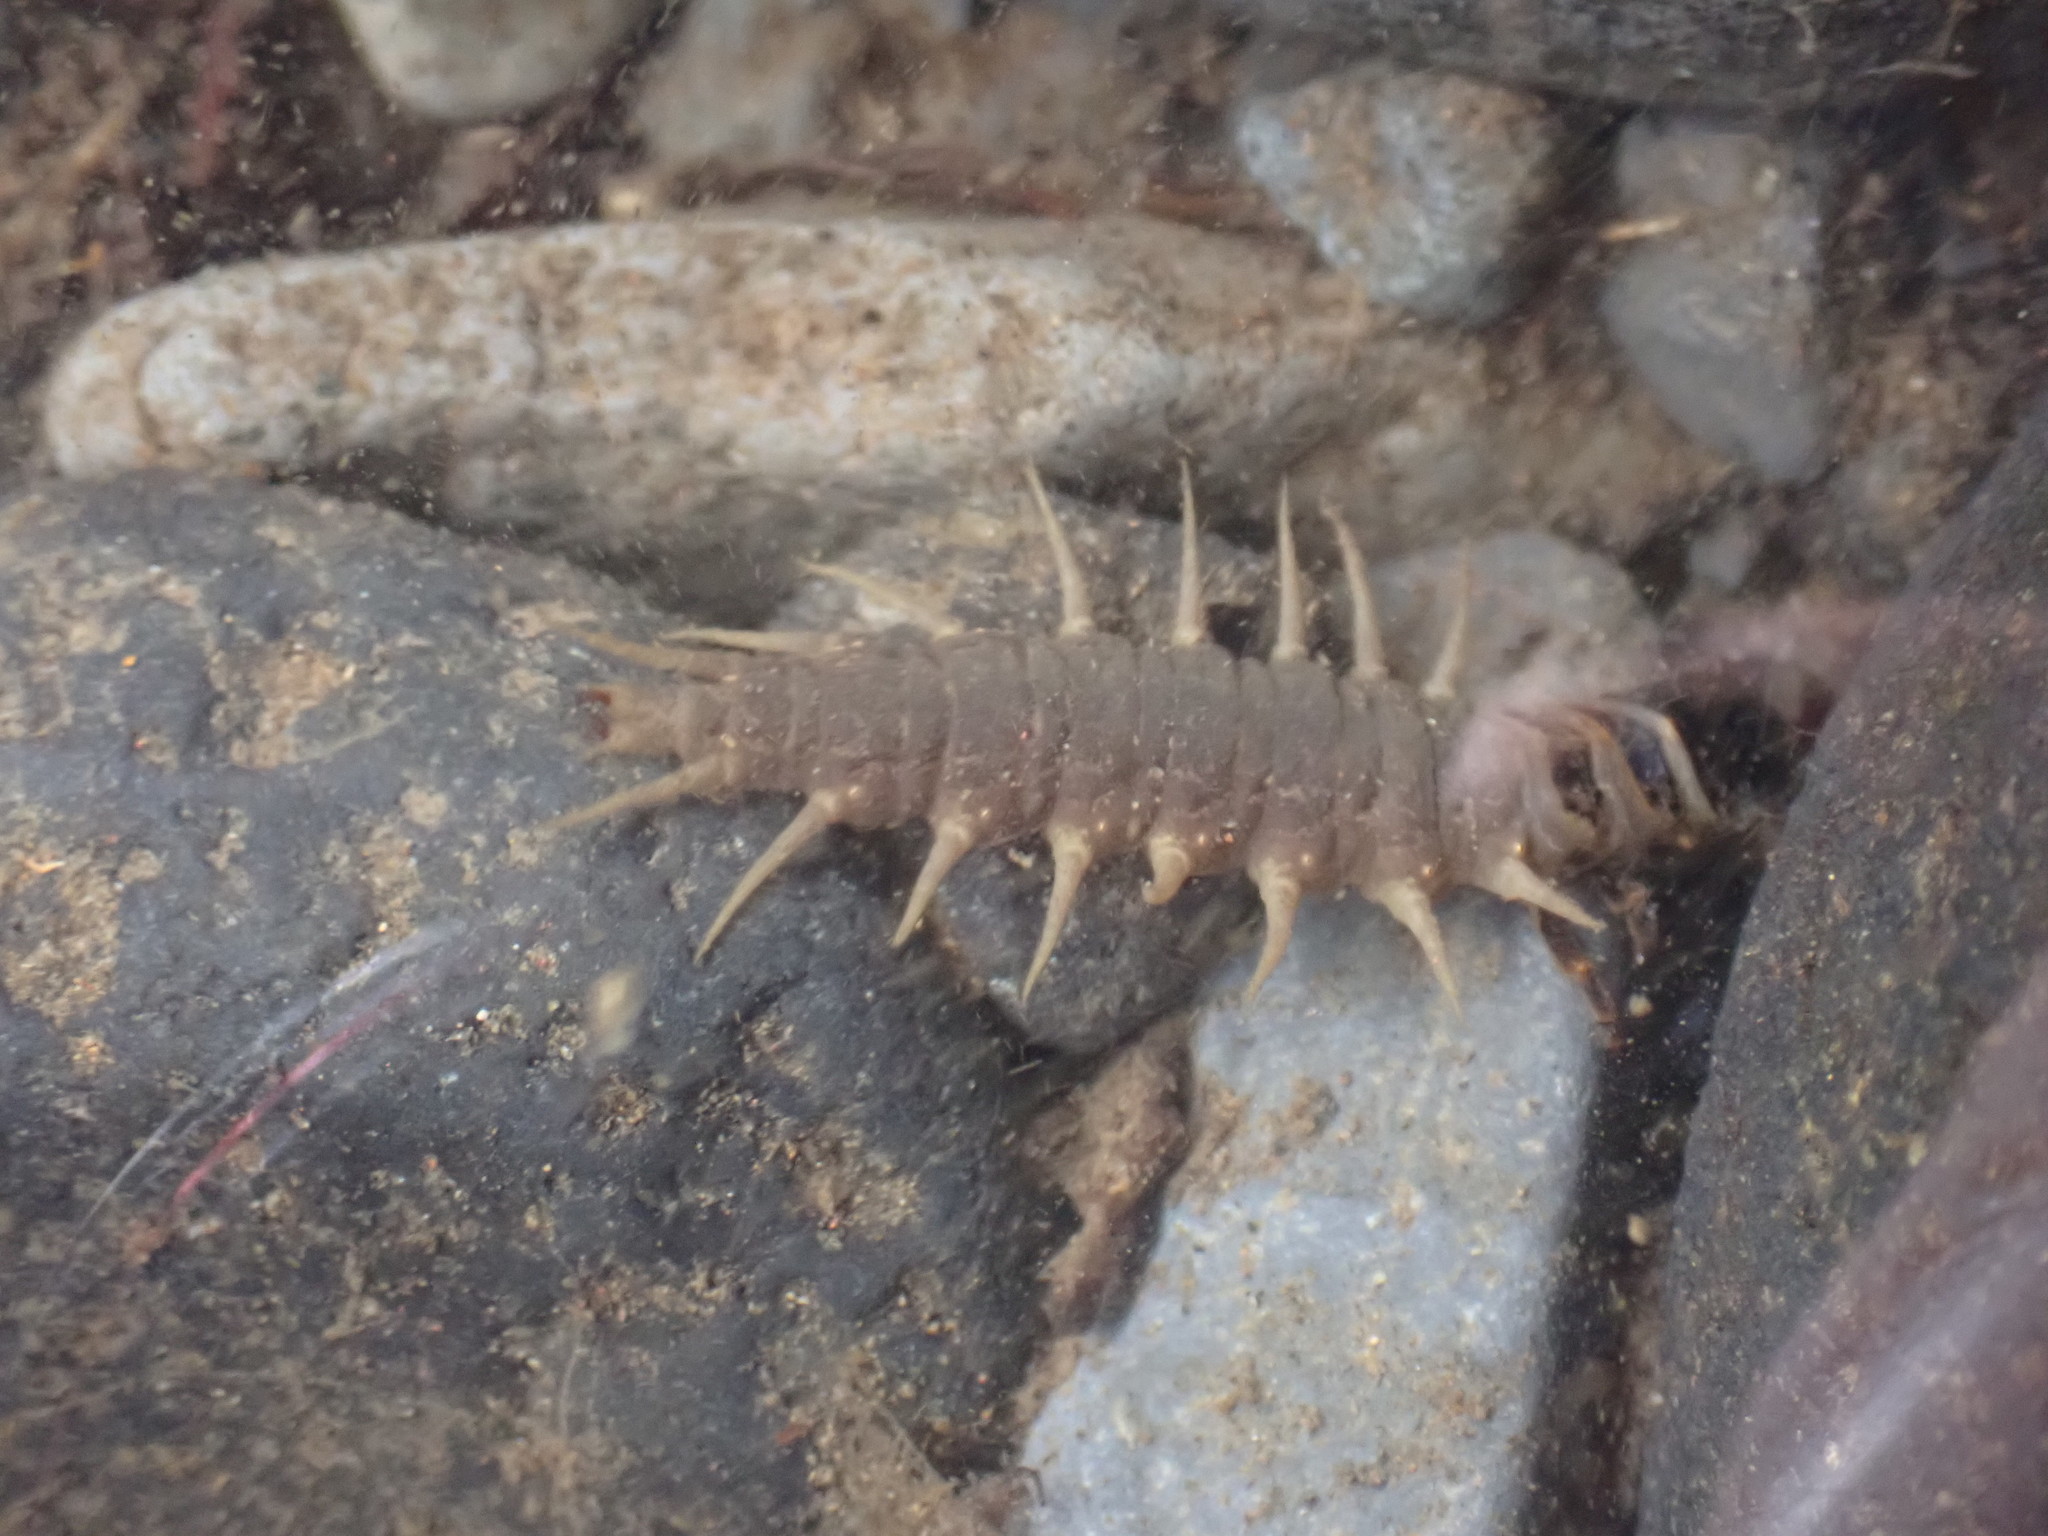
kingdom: Animalia
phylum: Arthropoda
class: Insecta
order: Megaloptera
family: Corydalidae
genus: Archichauliodes
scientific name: Archichauliodes diversus
